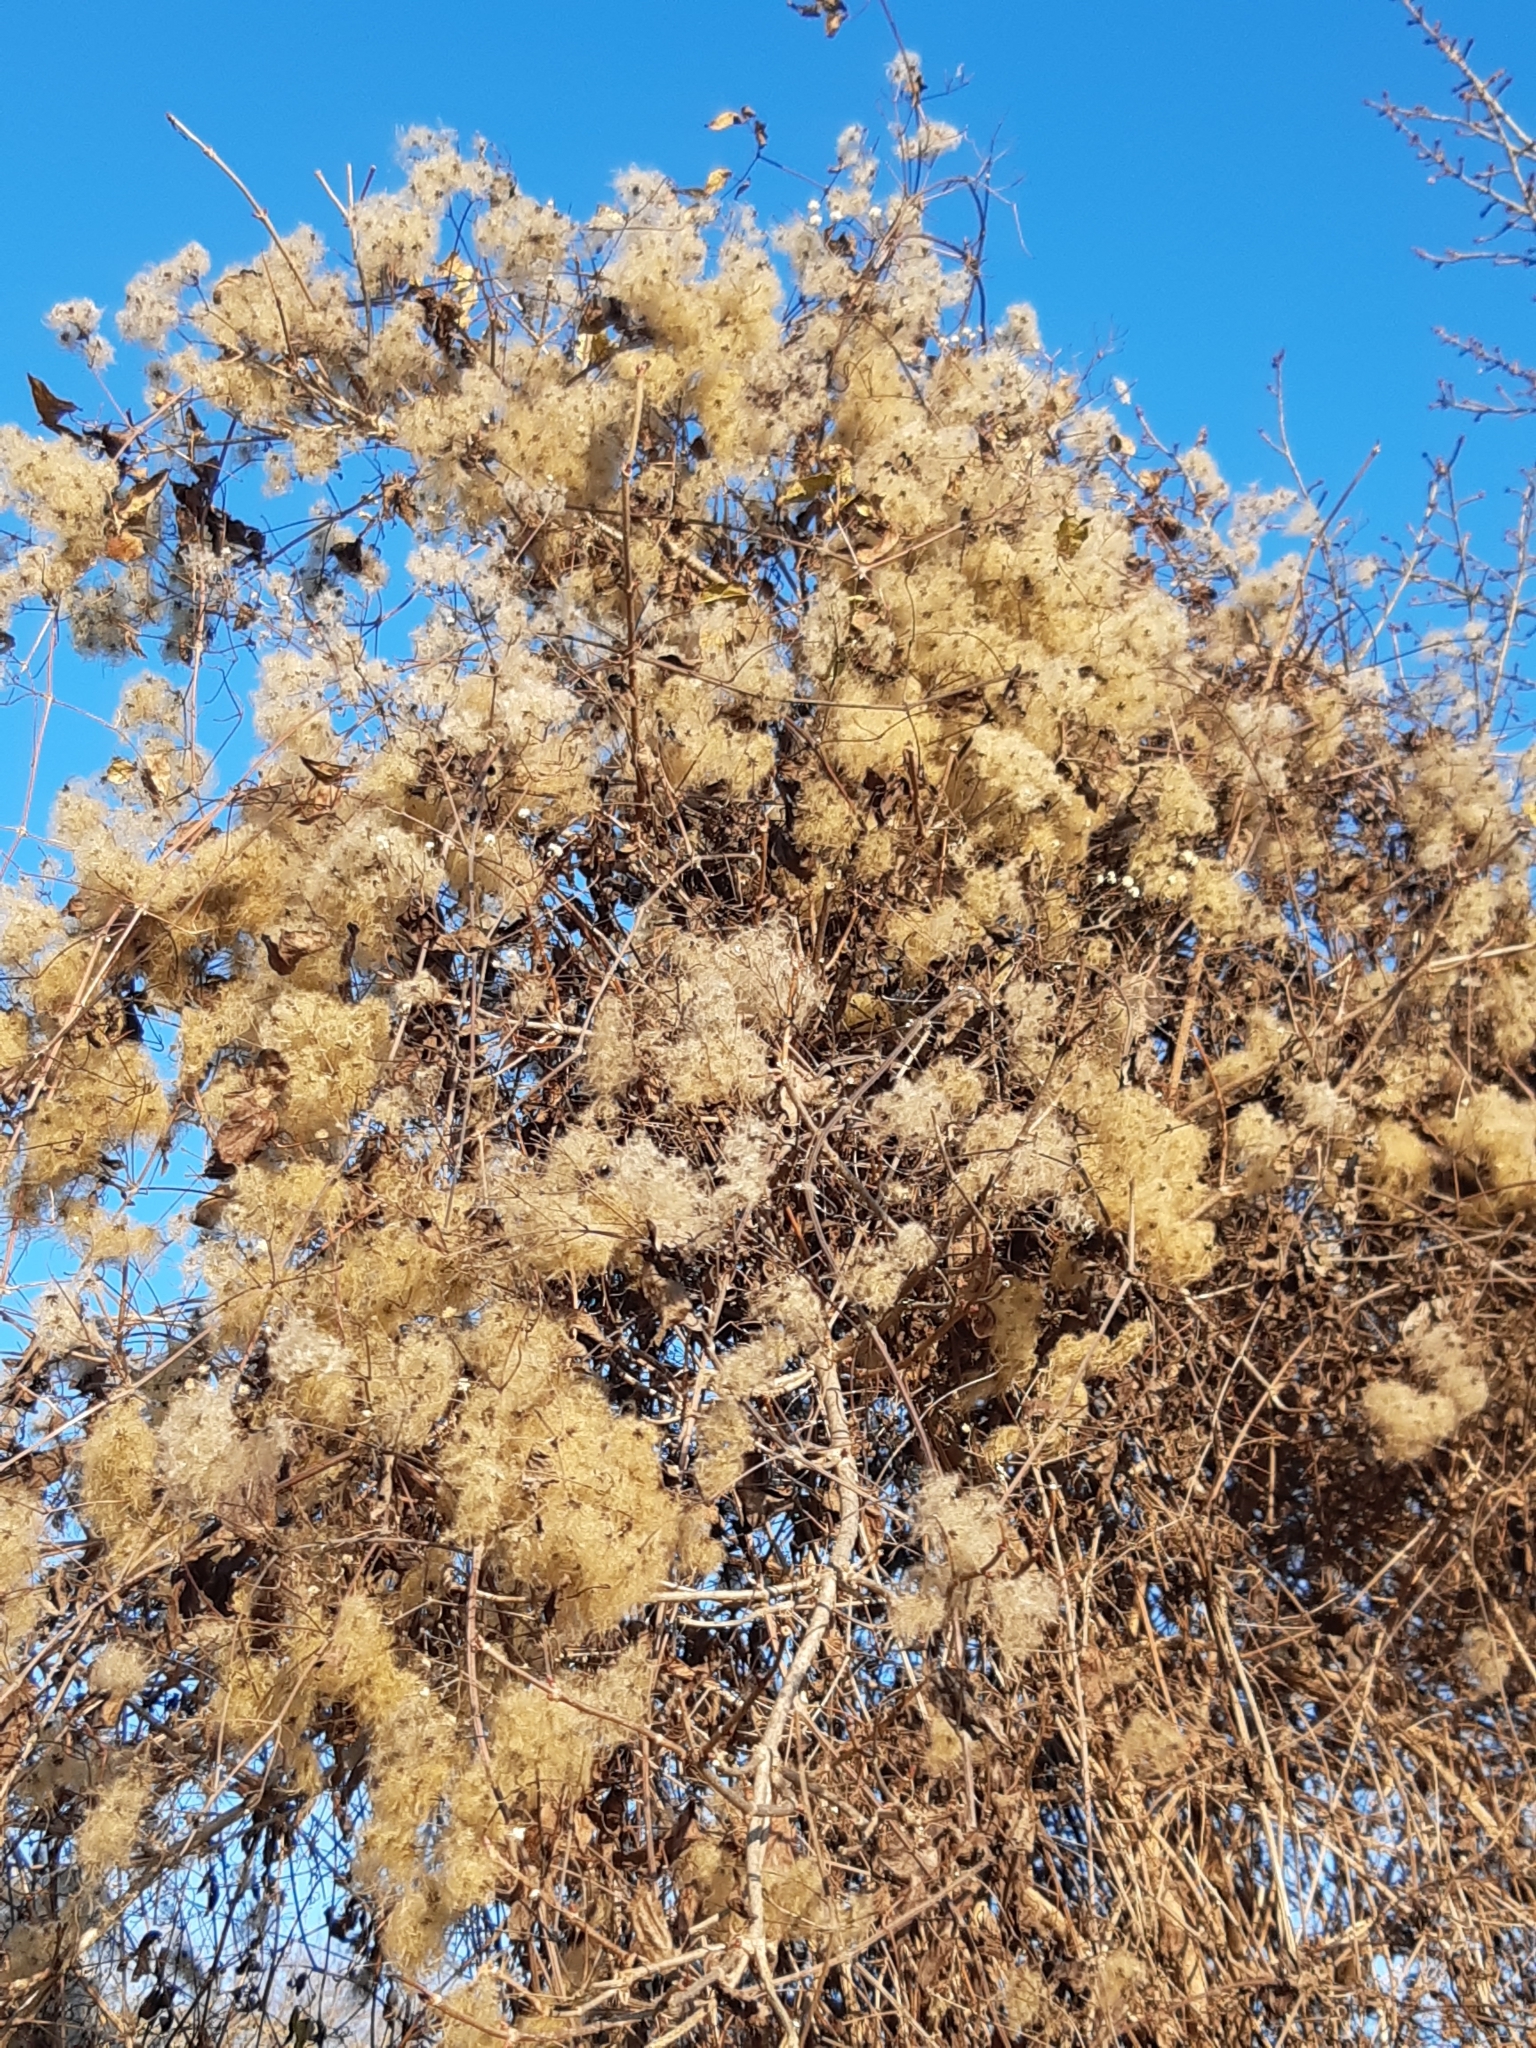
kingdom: Plantae
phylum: Tracheophyta
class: Magnoliopsida
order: Ranunculales
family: Ranunculaceae
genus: Clematis
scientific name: Clematis vitalba
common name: Evergreen clematis
